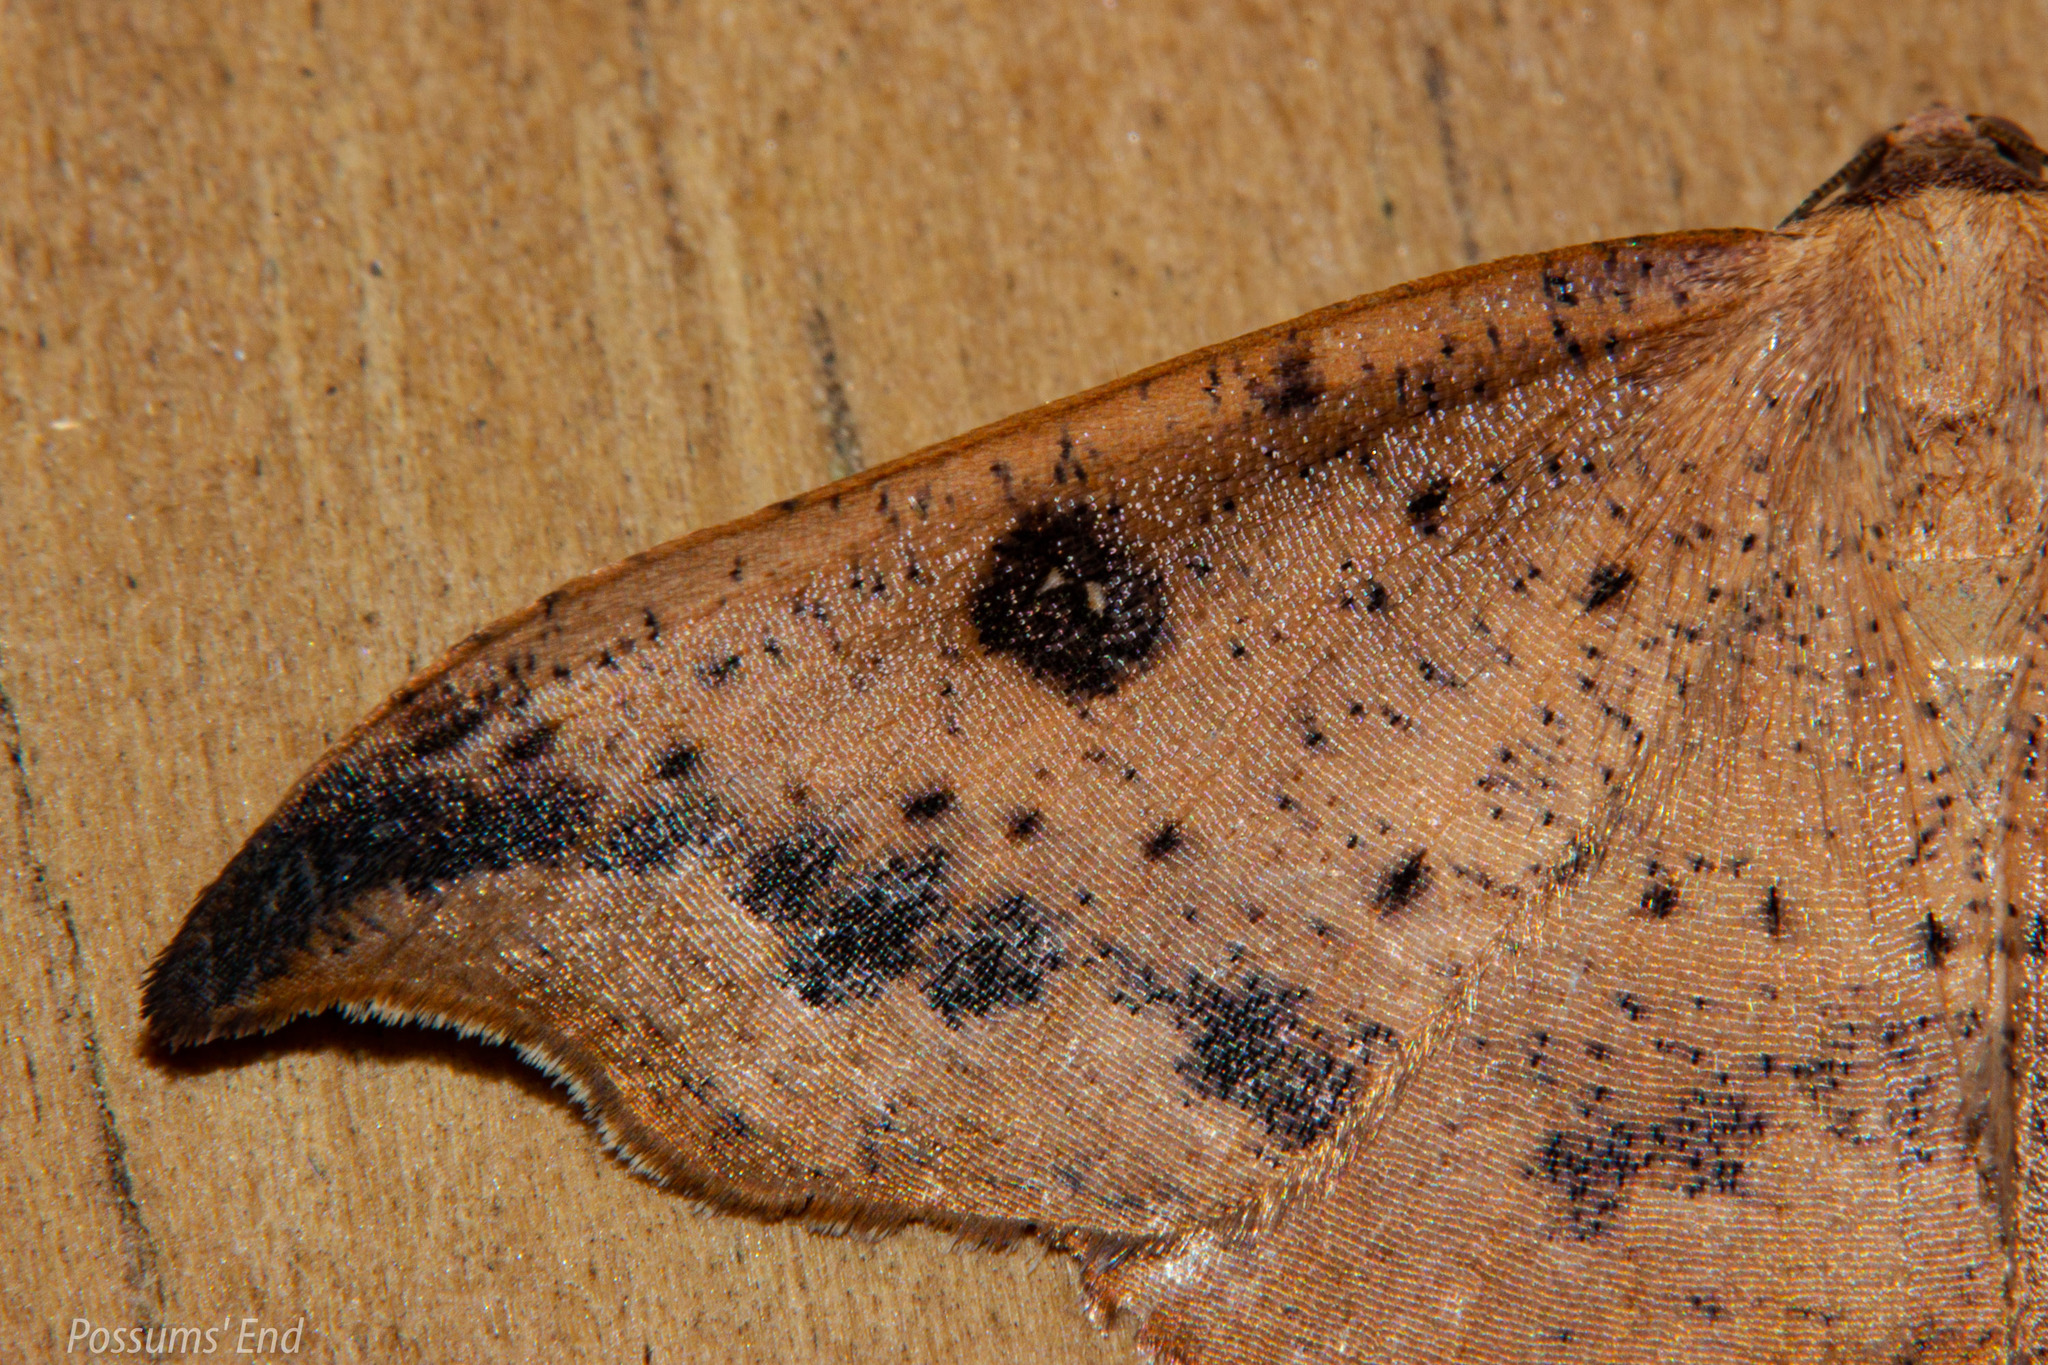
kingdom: Animalia
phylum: Arthropoda
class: Insecta
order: Lepidoptera
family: Geometridae
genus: Sarisa
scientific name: Sarisa muriferata
